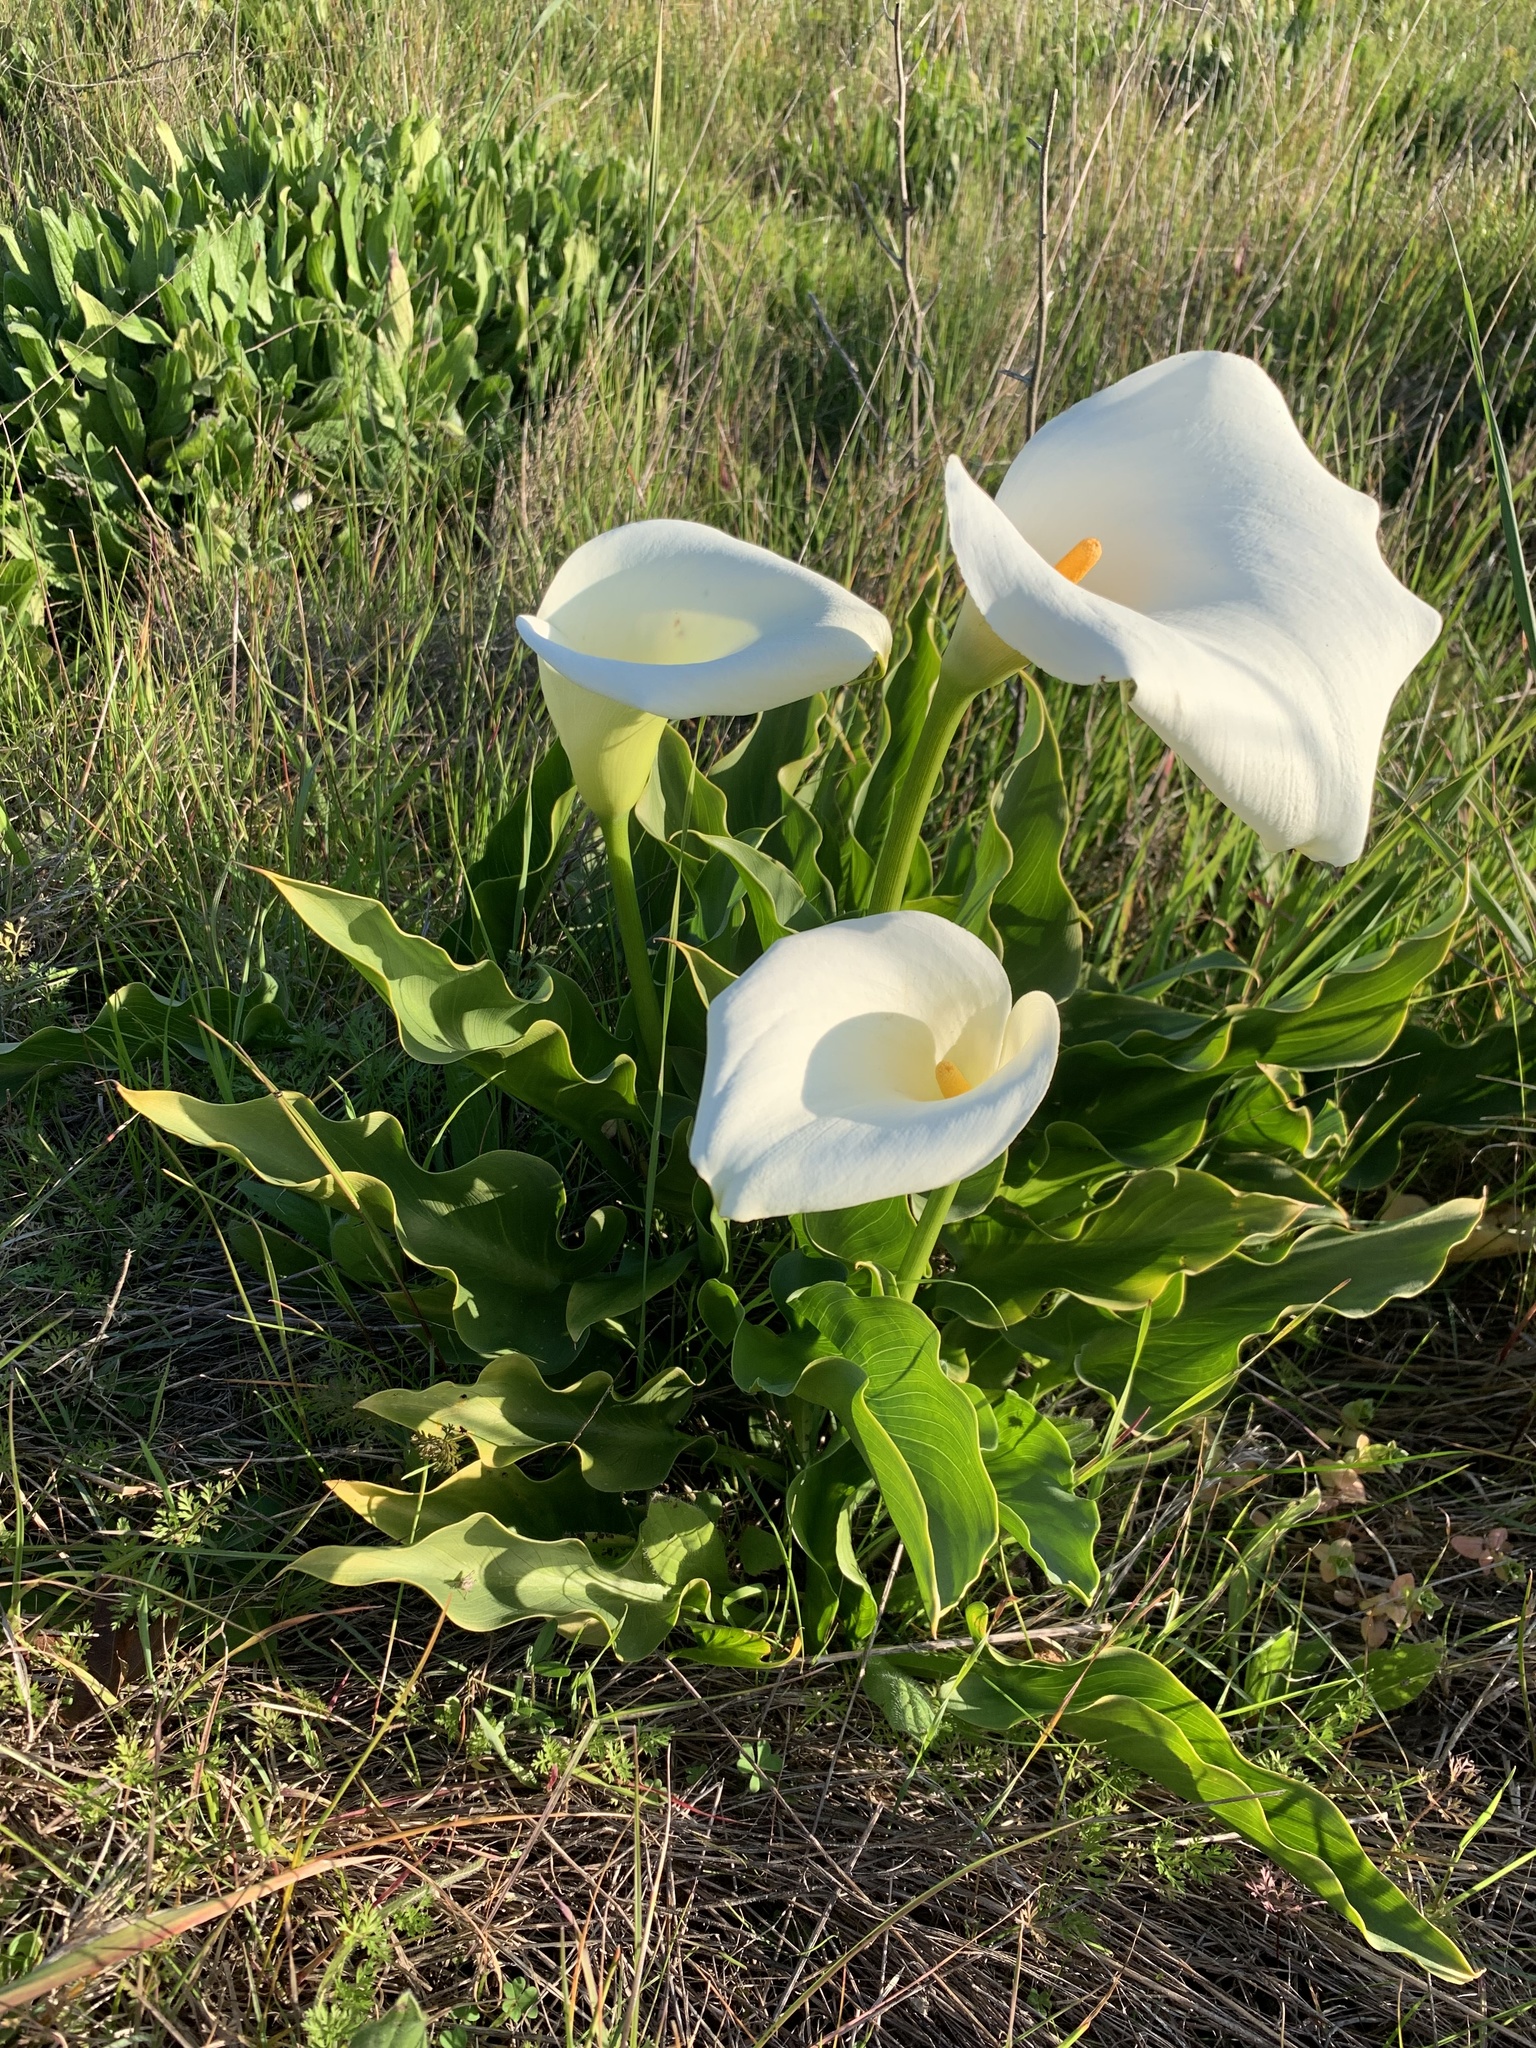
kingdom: Plantae
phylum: Tracheophyta
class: Liliopsida
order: Alismatales
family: Araceae
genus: Zantedeschia
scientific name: Zantedeschia aethiopica
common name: Altar-lily
